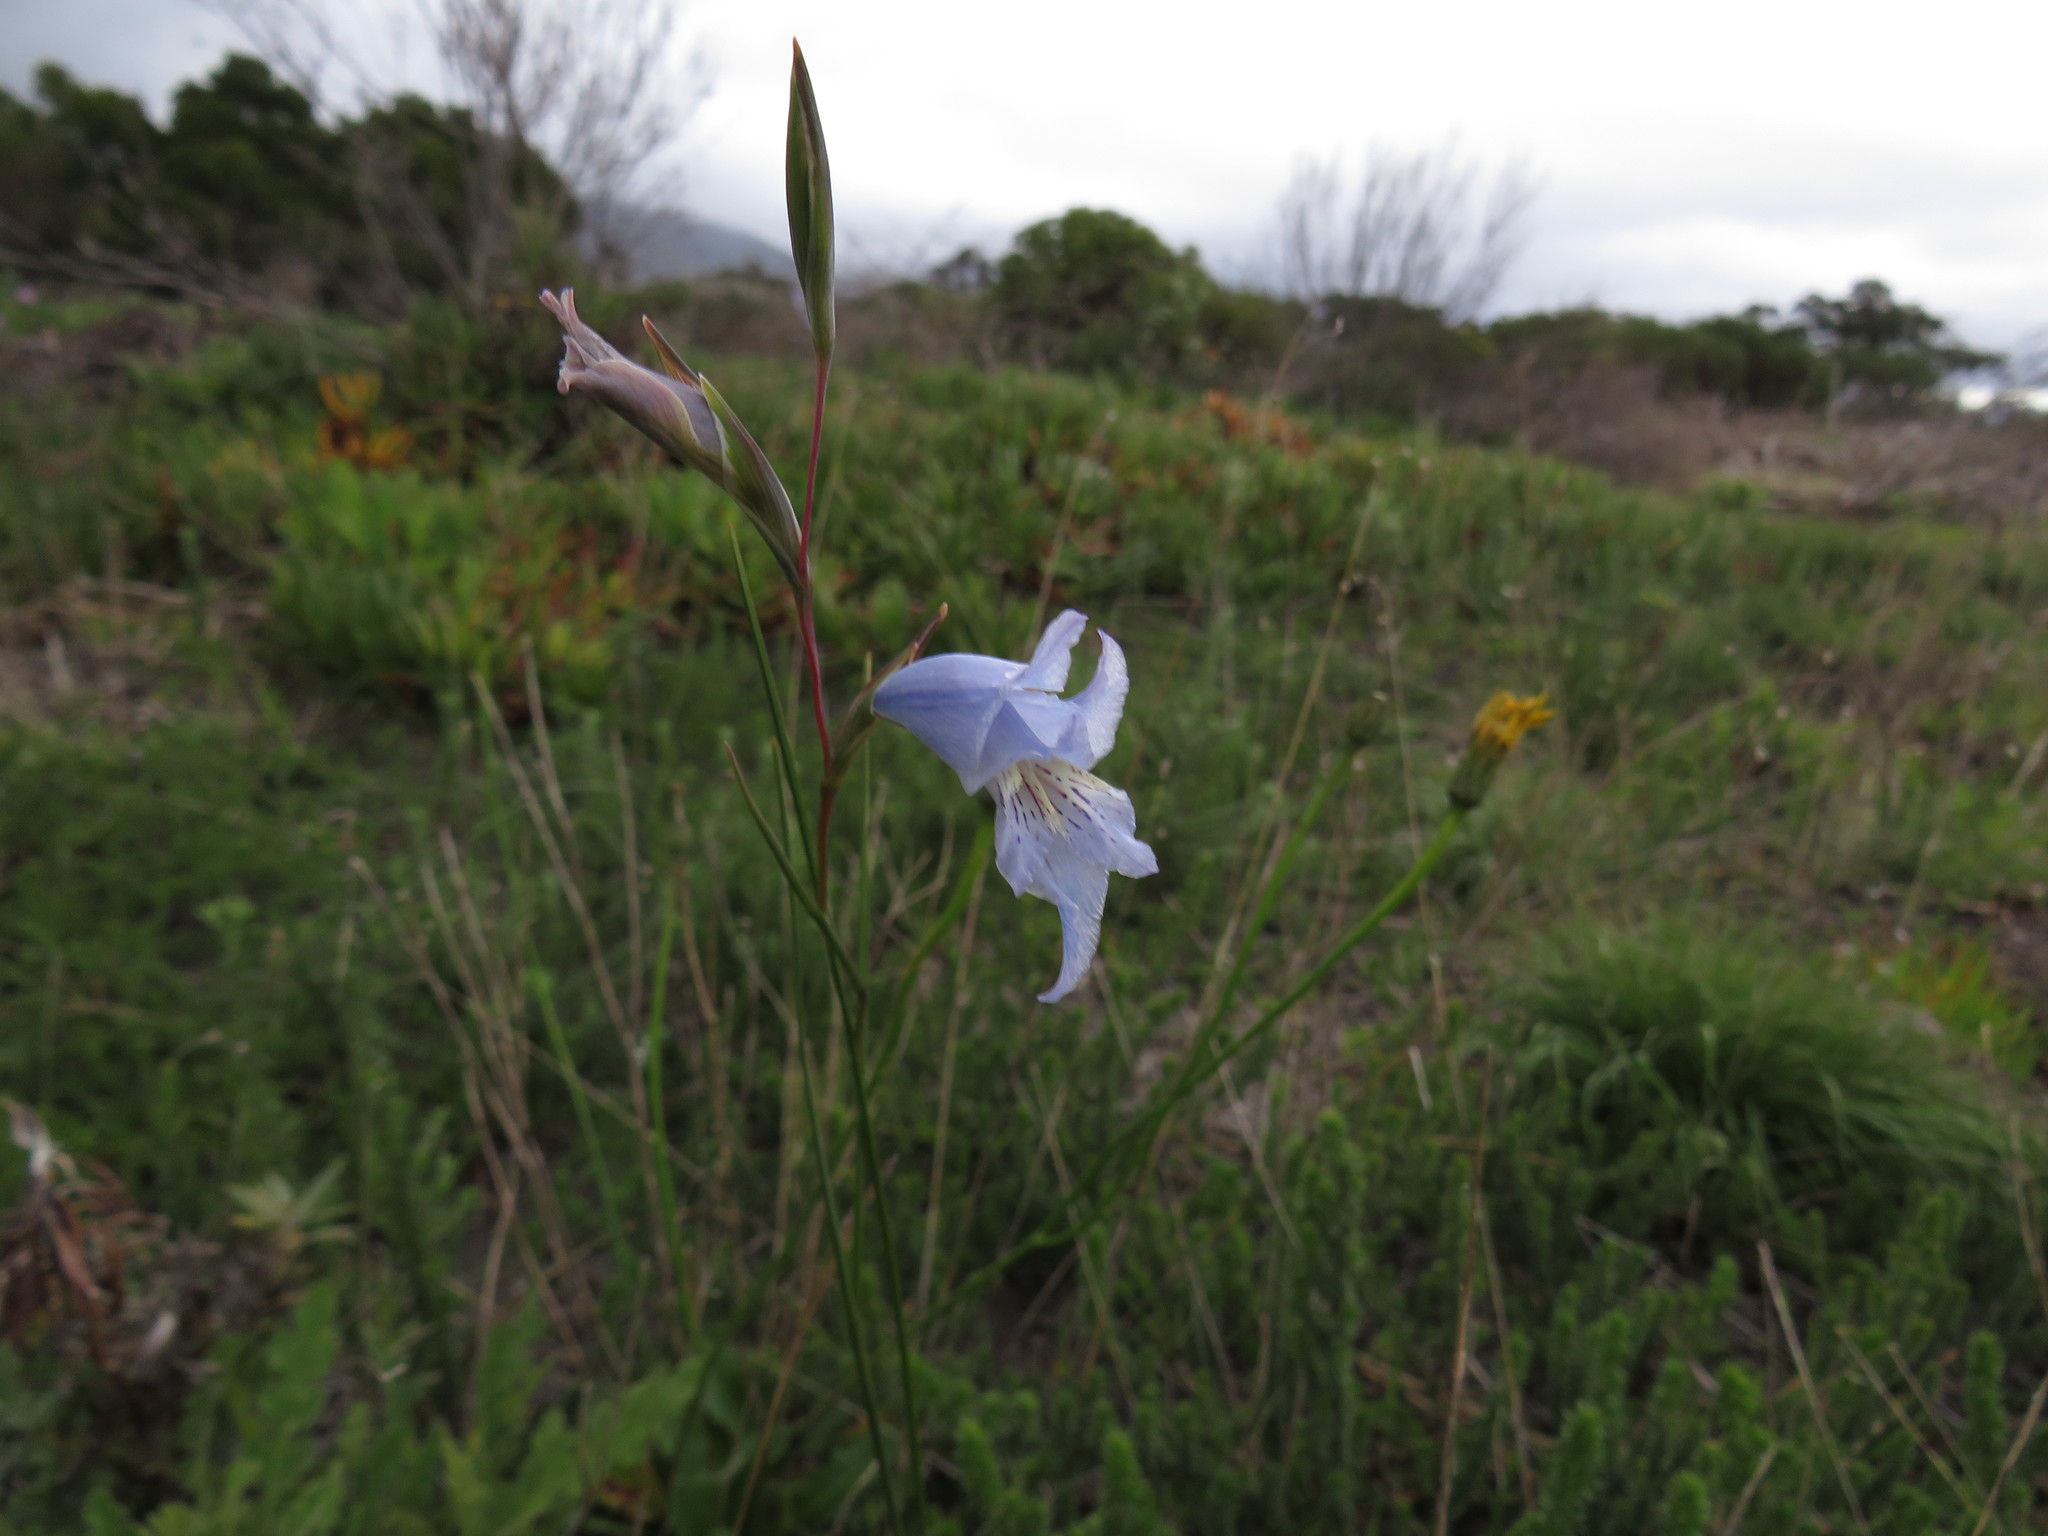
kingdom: Plantae
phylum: Tracheophyta
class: Liliopsida
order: Asparagales
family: Iridaceae
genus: Gladiolus
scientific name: Gladiolus gracilis
